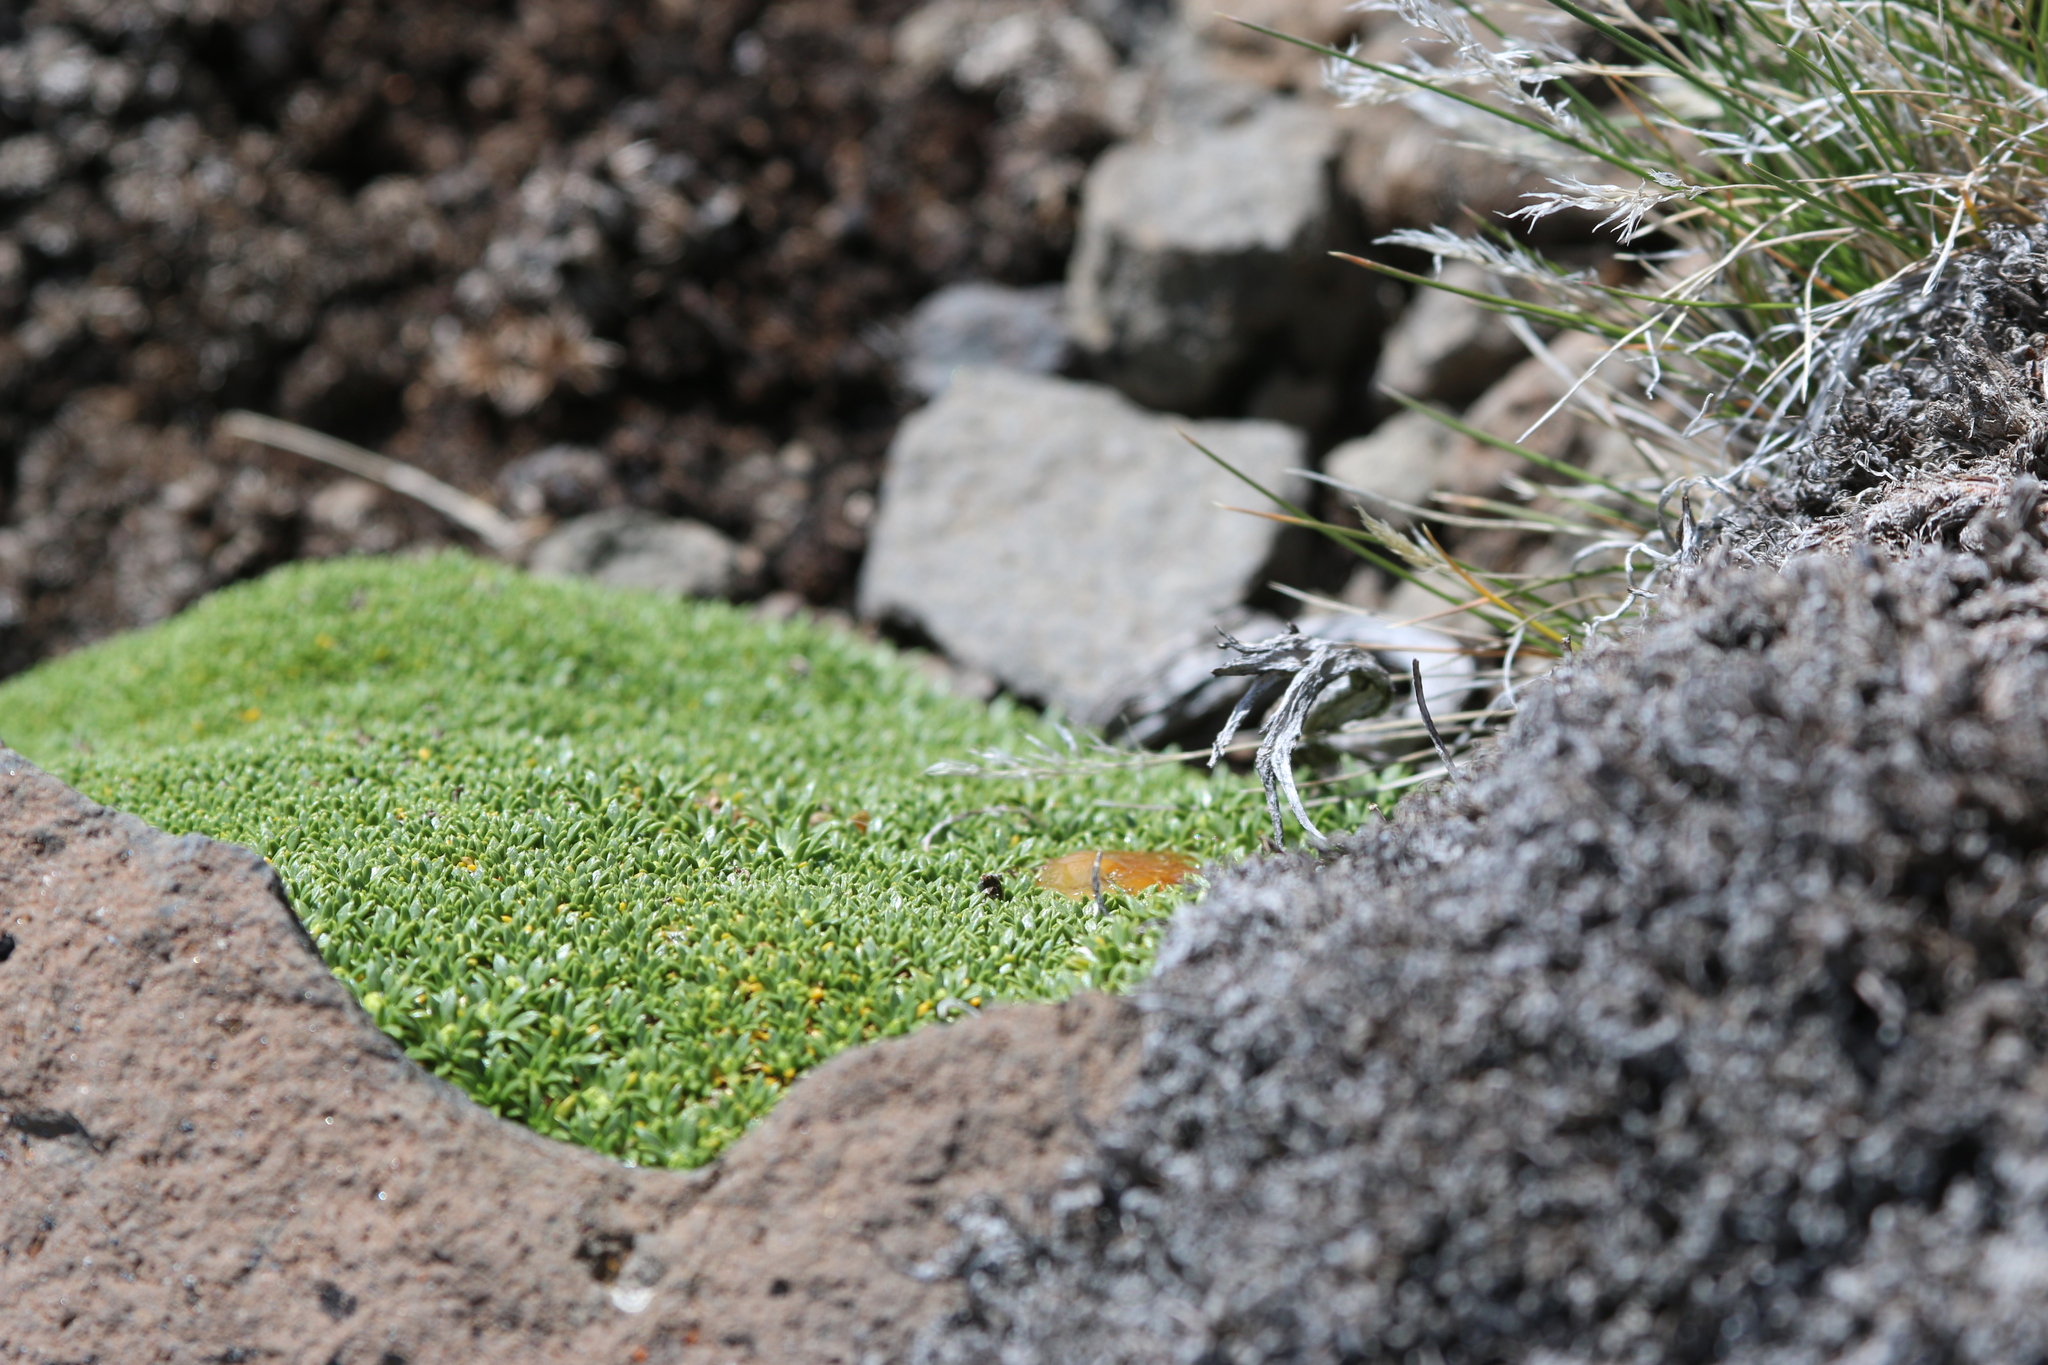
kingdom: Plantae
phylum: Tracheophyta
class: Magnoliopsida
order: Apiales
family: Apiaceae
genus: Azorella
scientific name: Azorella monantha
